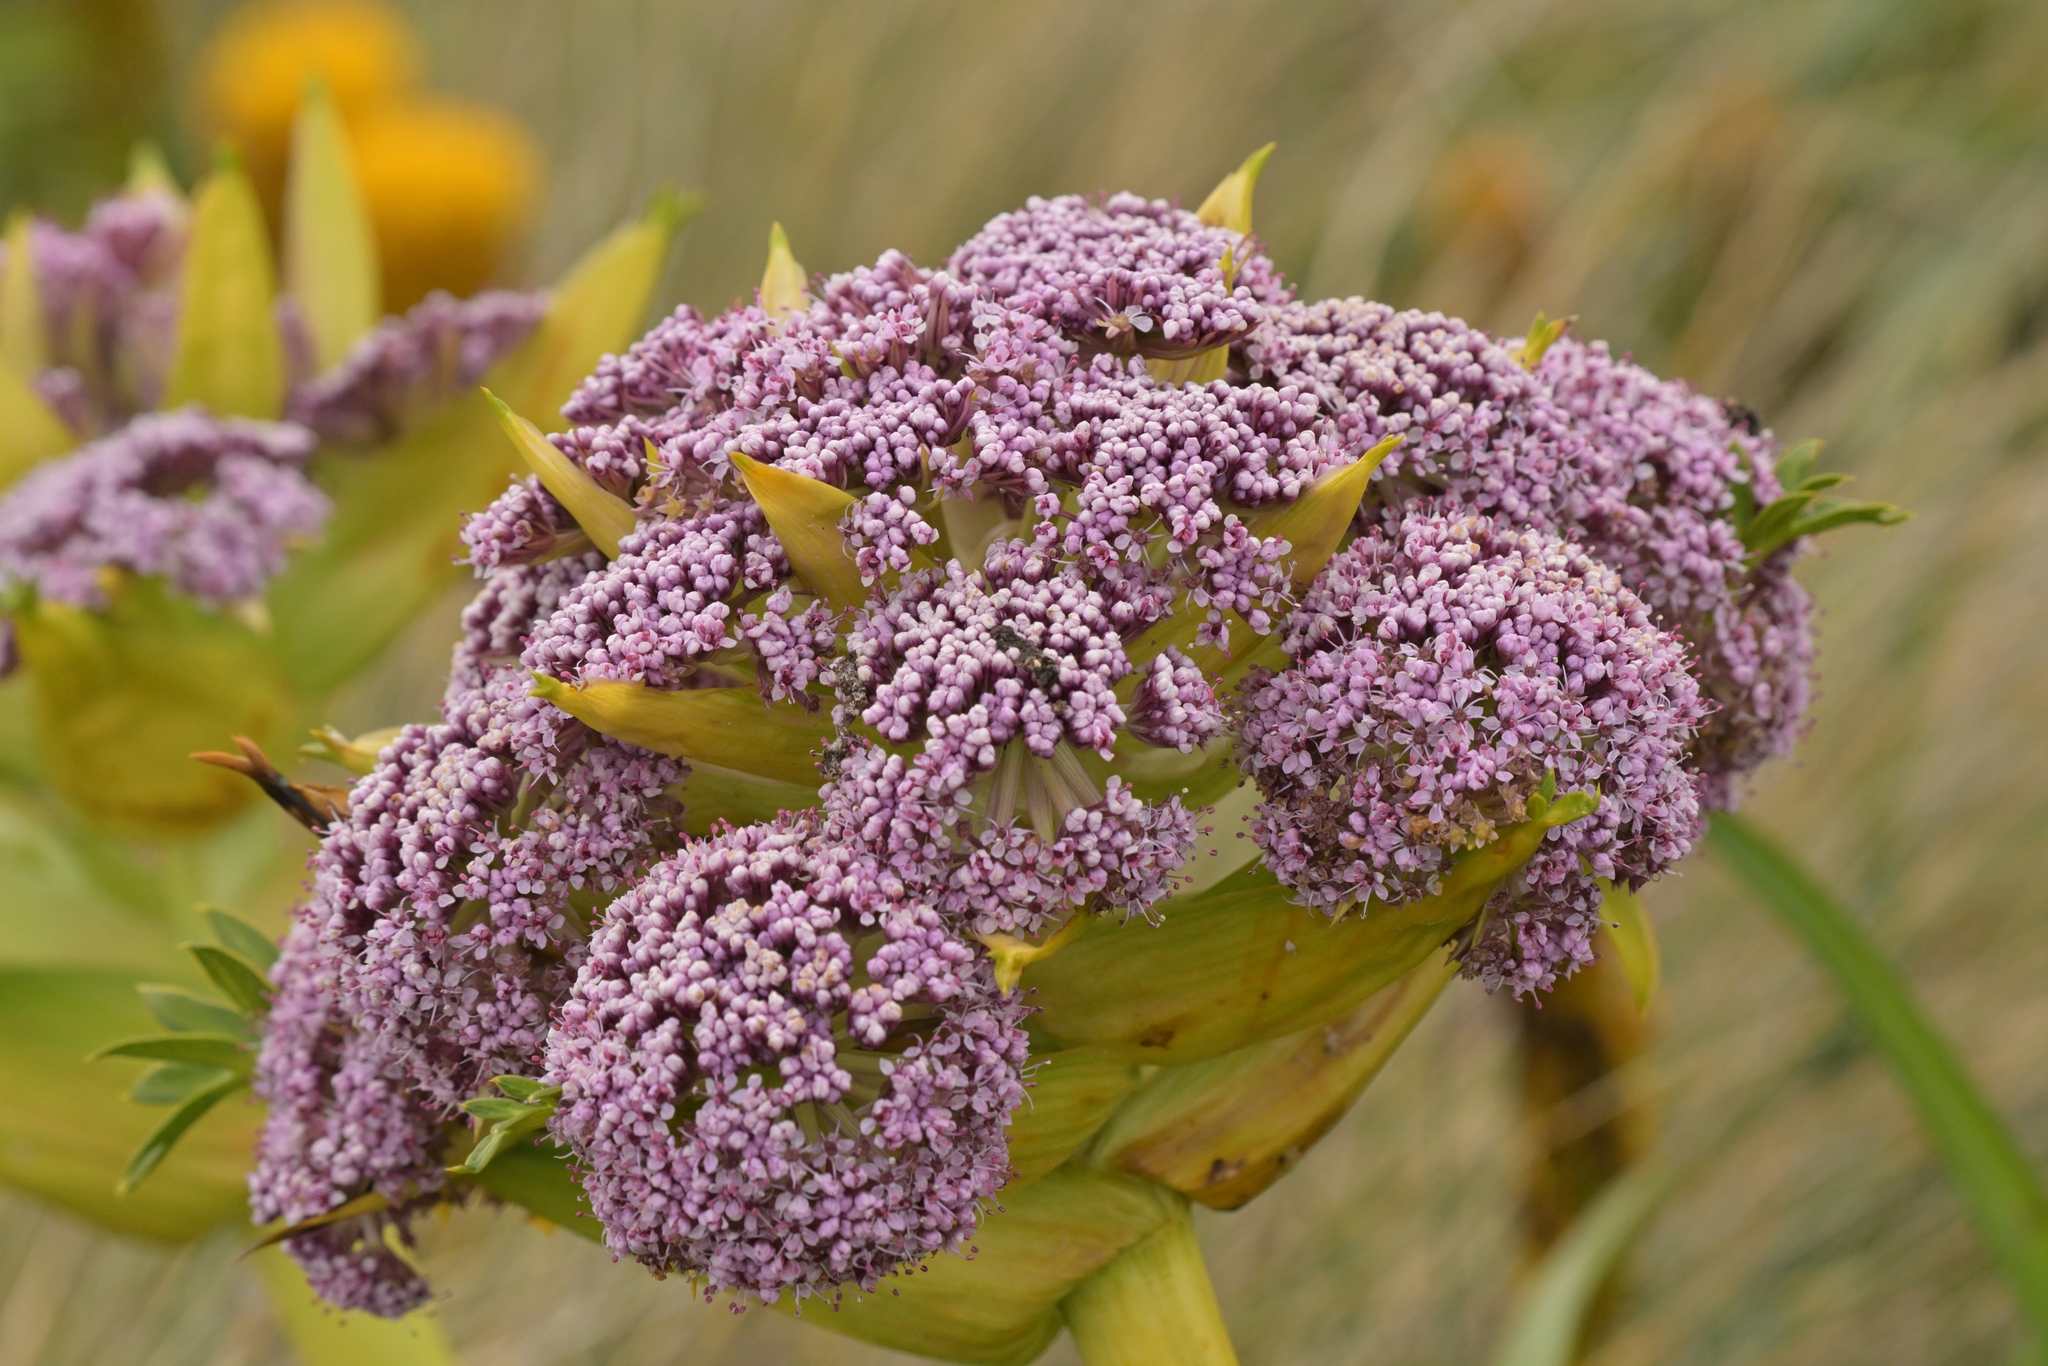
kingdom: Plantae
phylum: Tracheophyta
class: Magnoliopsida
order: Apiales
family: Apiaceae
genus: Anisotome
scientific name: Anisotome latifolia
